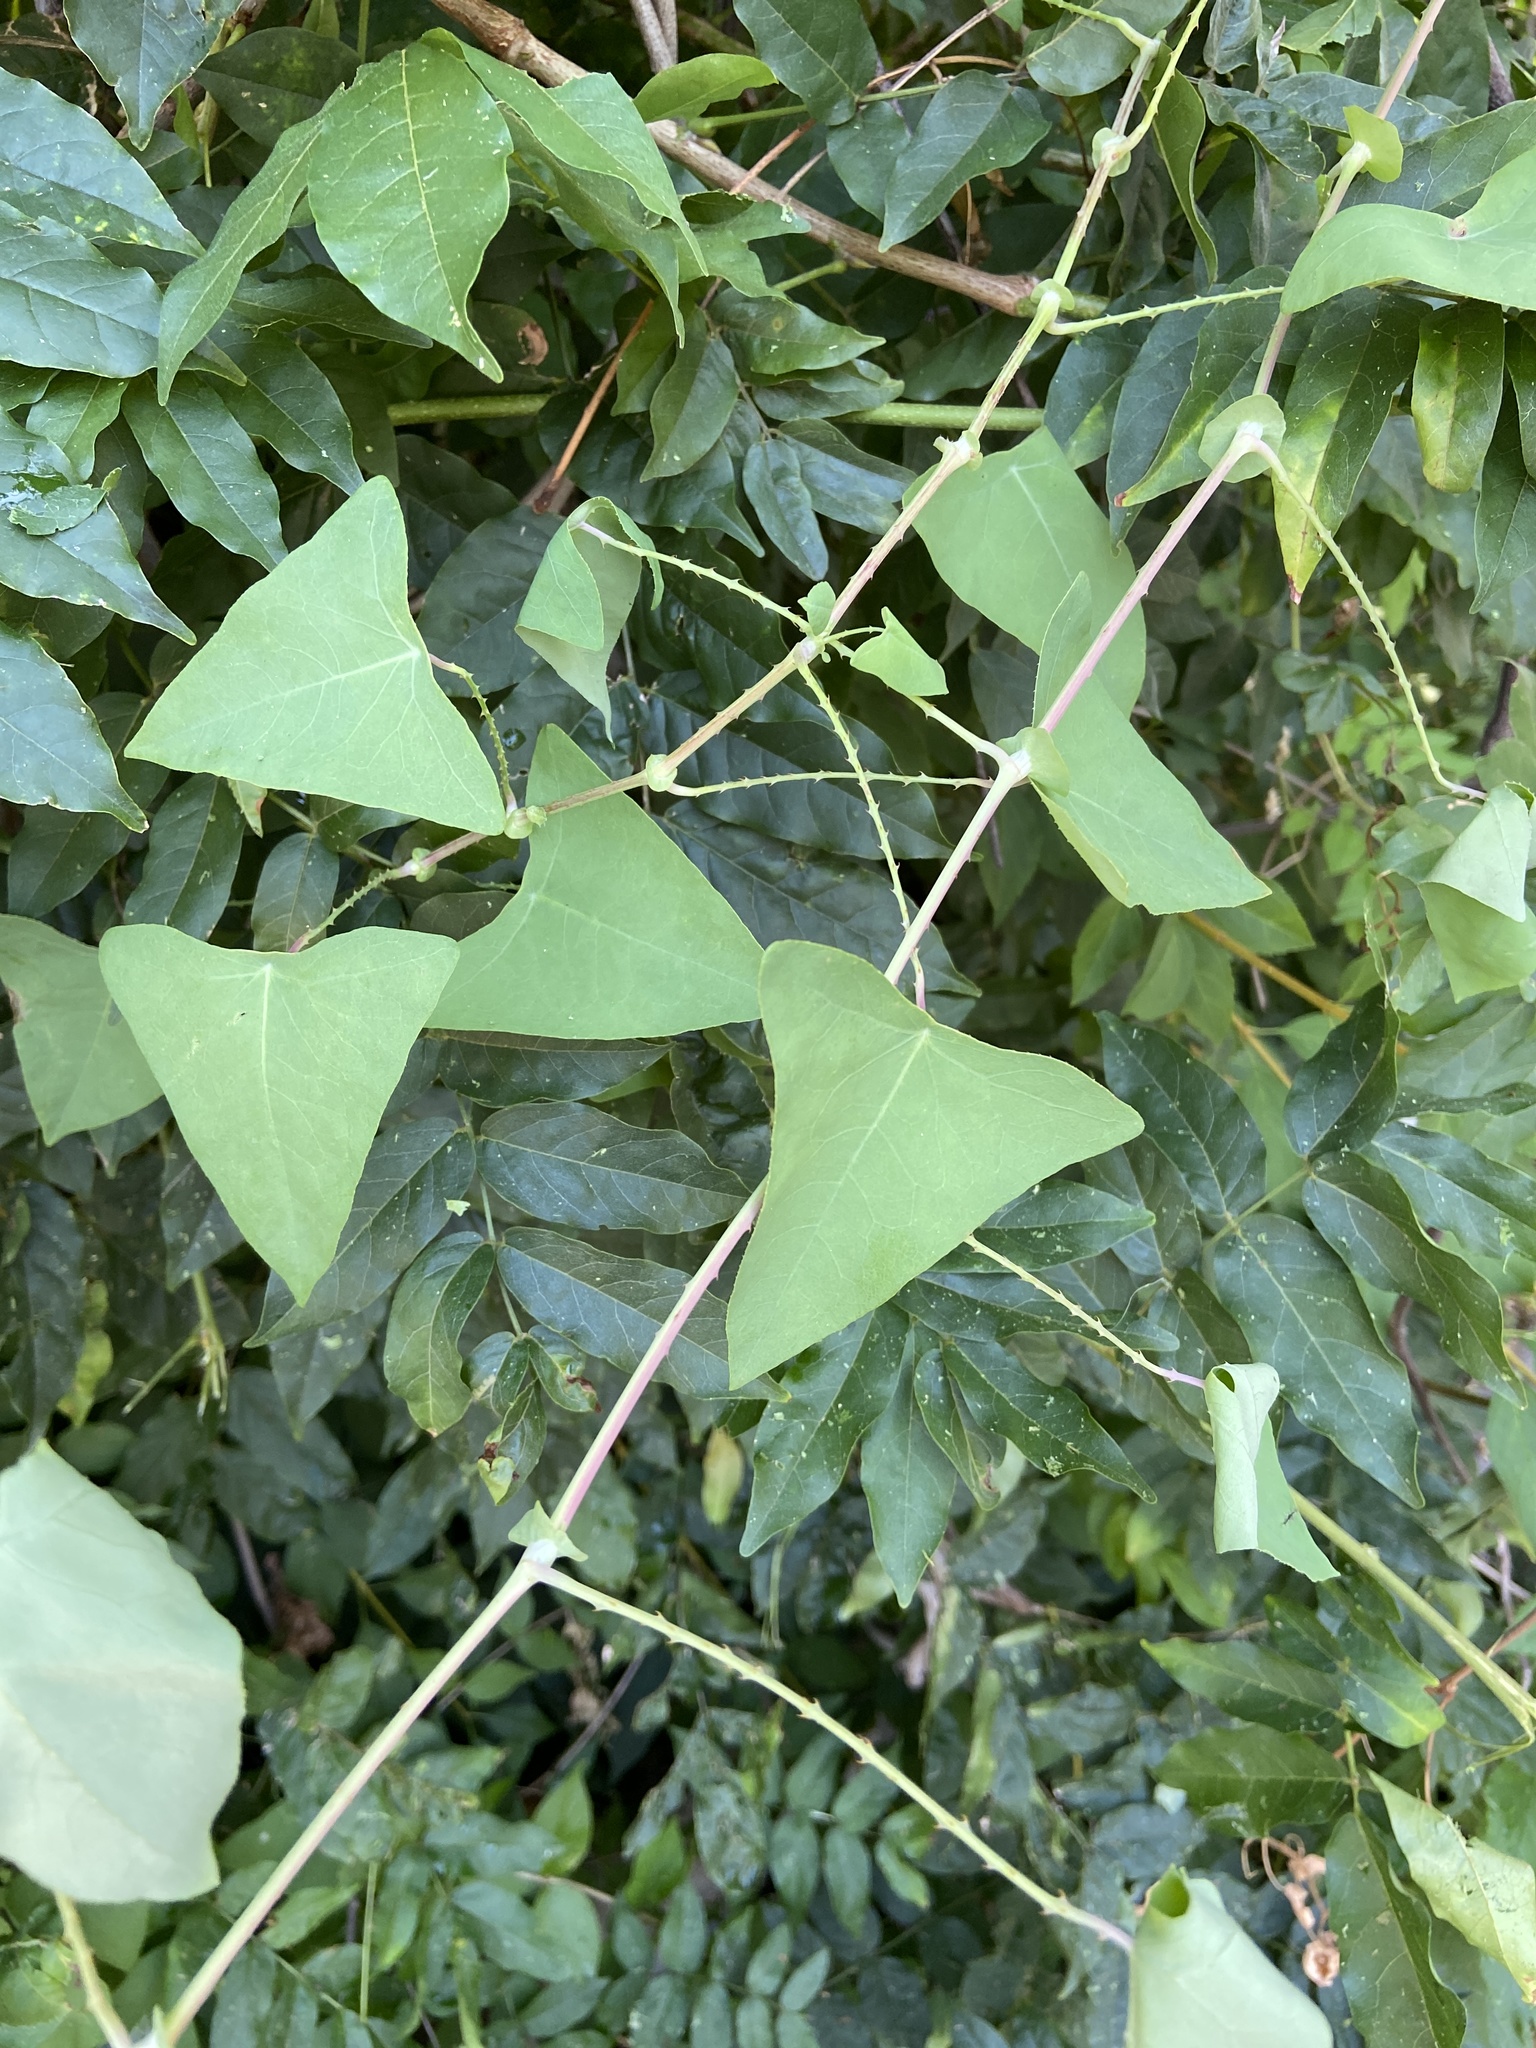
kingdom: Plantae
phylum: Tracheophyta
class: Magnoliopsida
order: Caryophyllales
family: Polygonaceae
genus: Persicaria
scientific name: Persicaria perfoliata
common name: Asiatic tearthumb
